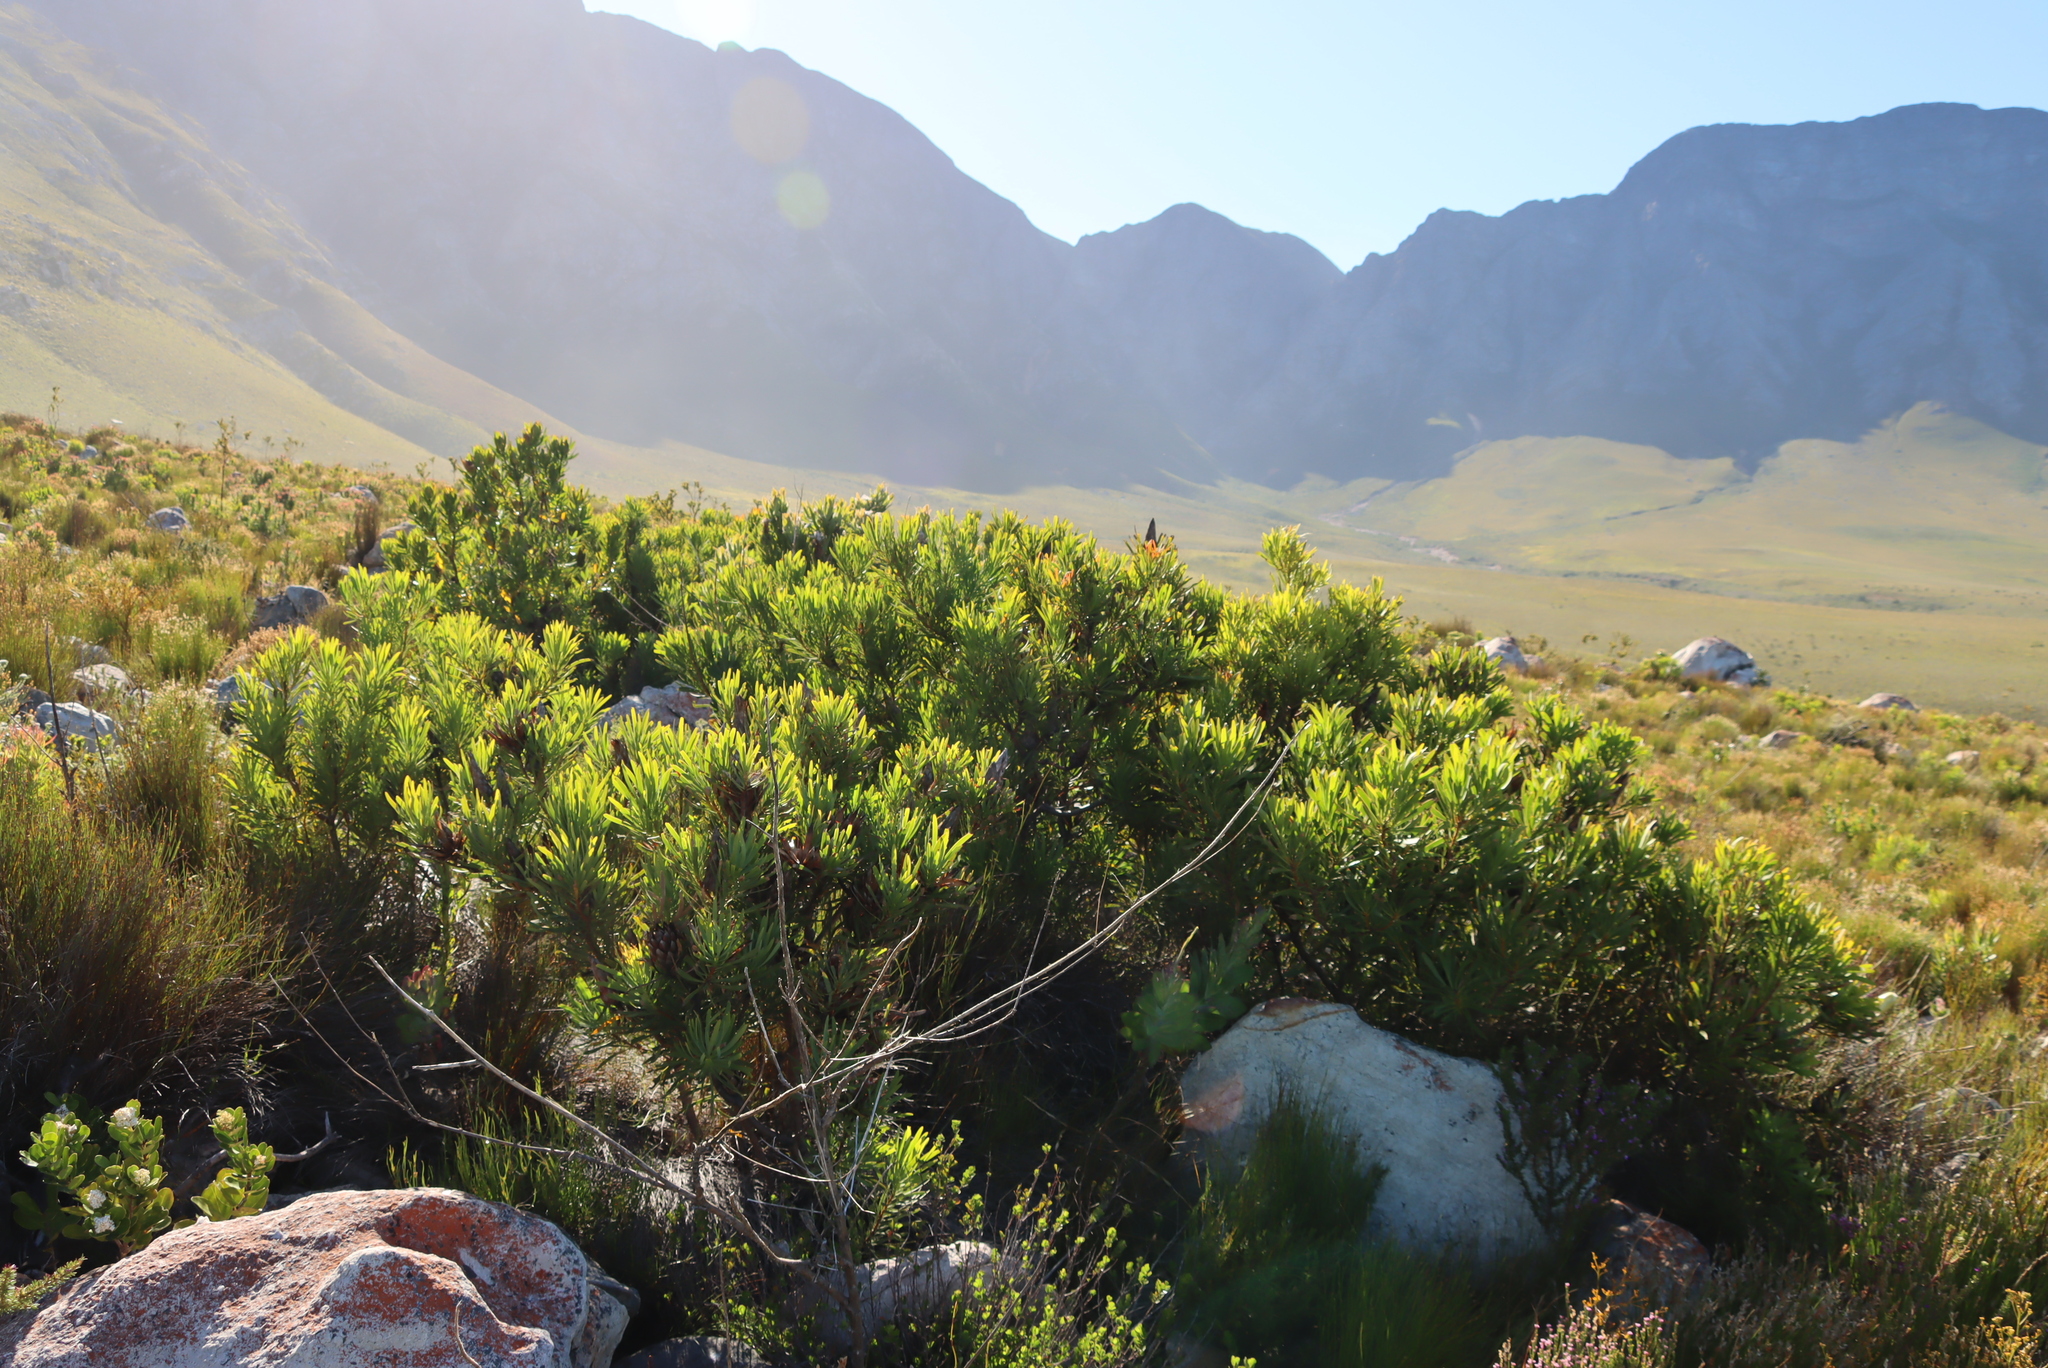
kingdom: Plantae
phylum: Tracheophyta
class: Magnoliopsida
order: Proteales
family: Proteaceae
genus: Protea
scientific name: Protea repens
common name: Sugarbush
